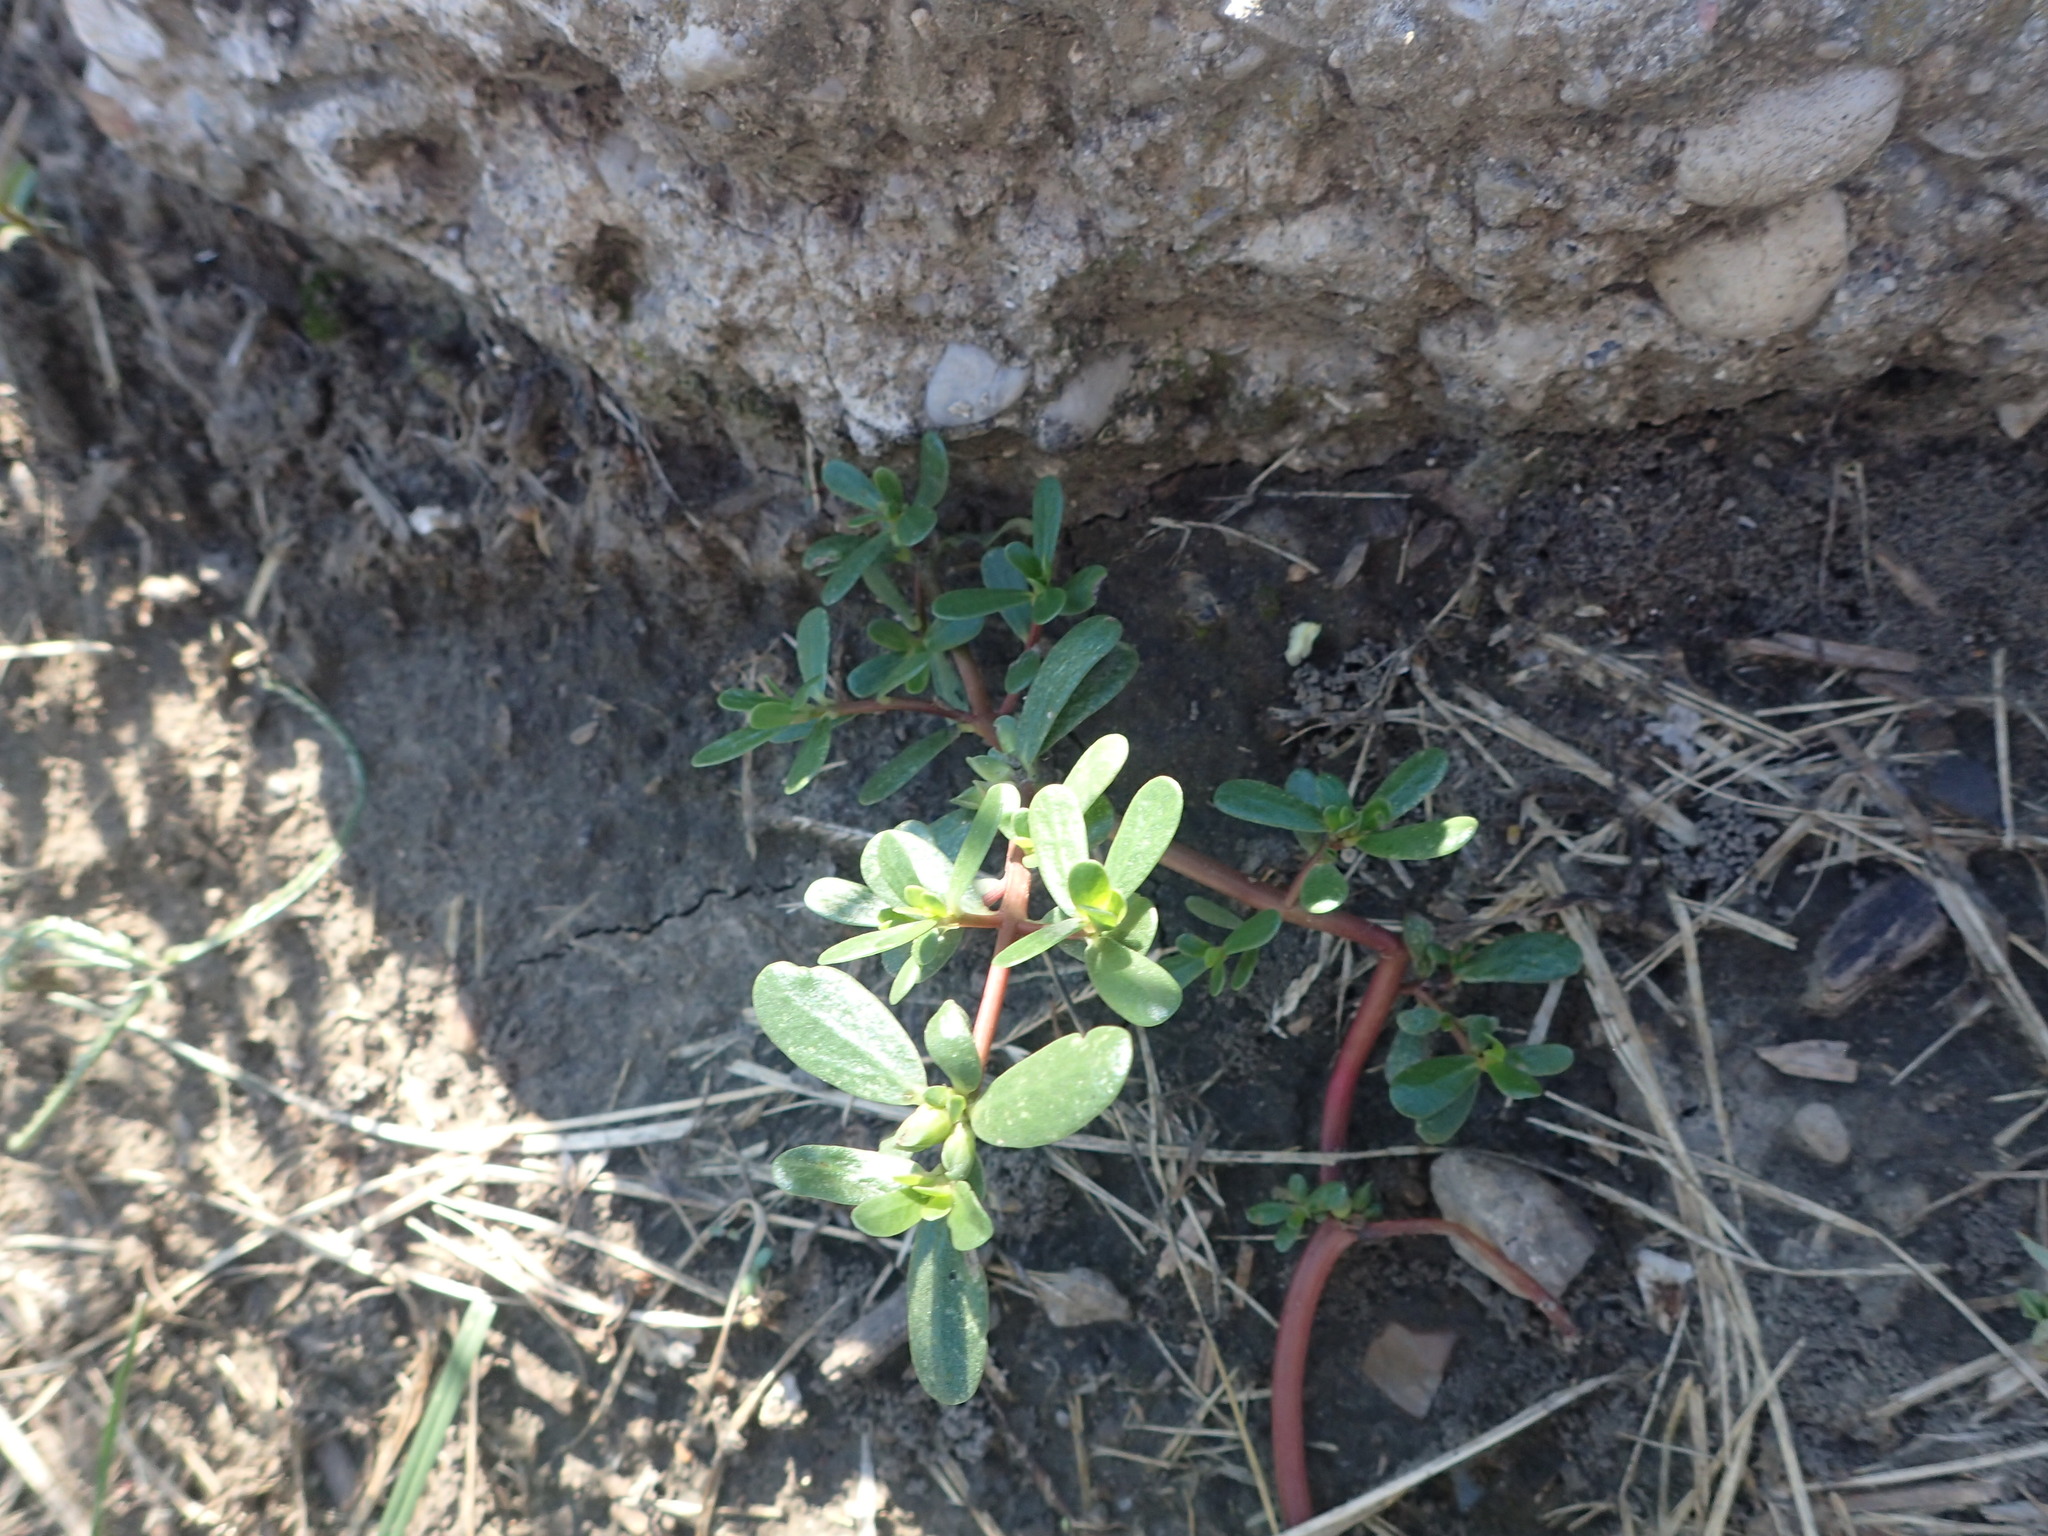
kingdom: Plantae
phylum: Tracheophyta
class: Magnoliopsida
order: Caryophyllales
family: Portulacaceae
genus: Portulaca
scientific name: Portulaca oleracea
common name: Common purslane
